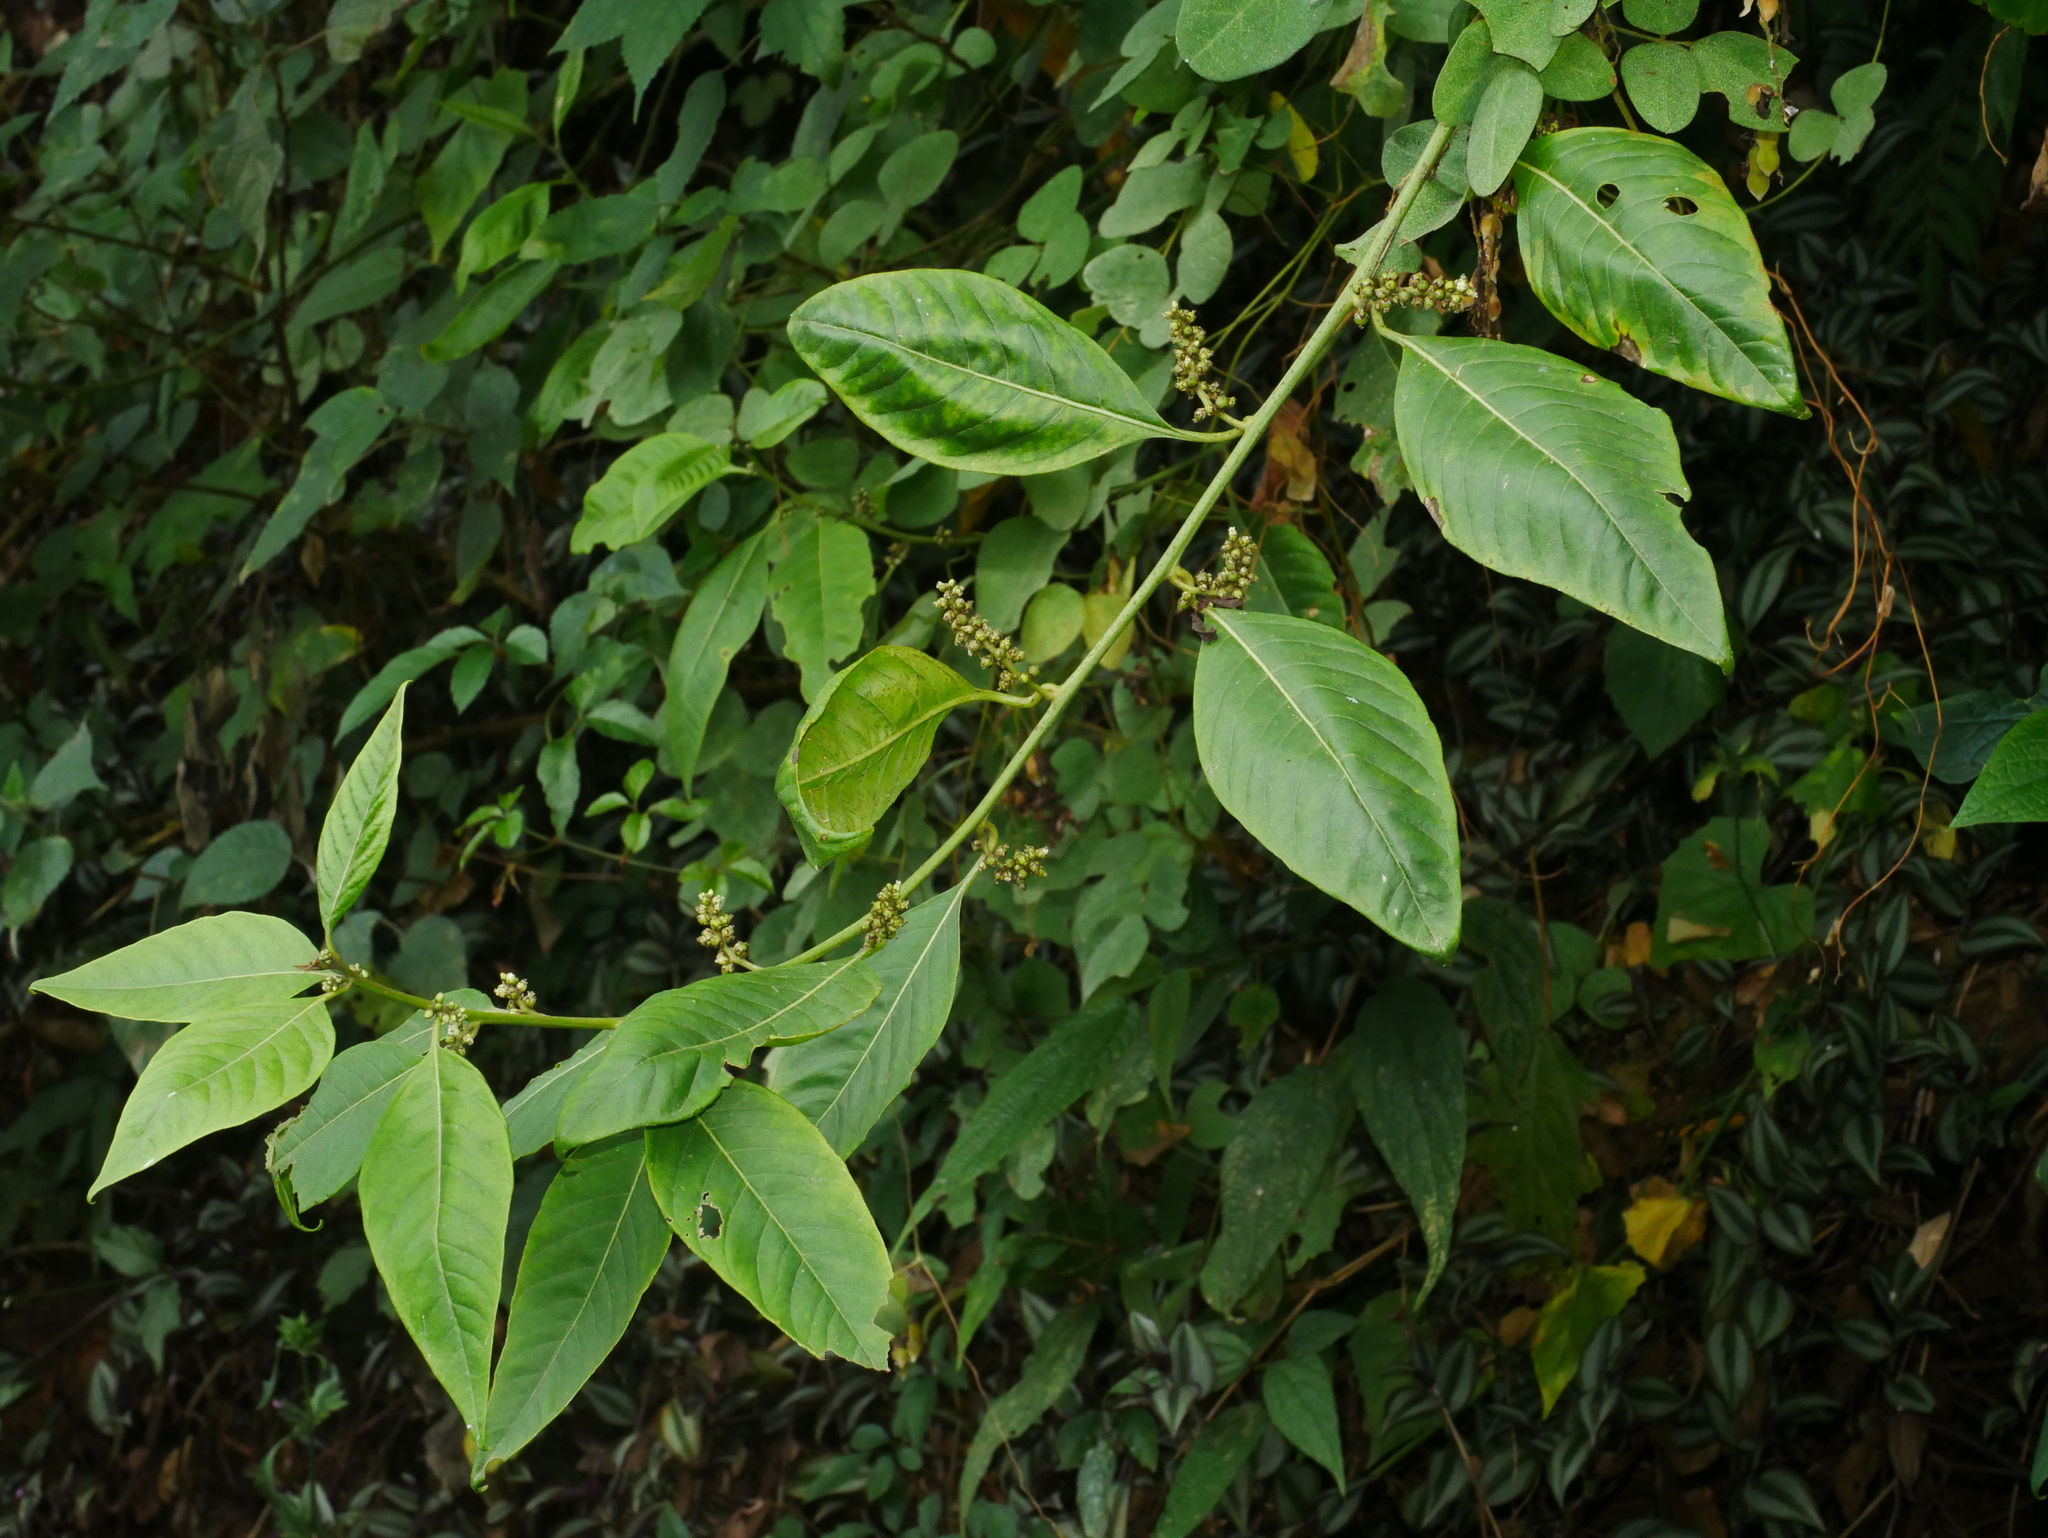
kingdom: Plantae
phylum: Tracheophyta
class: Magnoliopsida
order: Caryophyllales
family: Amaranthaceae
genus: Deeringia
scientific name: Deeringia polysperma
